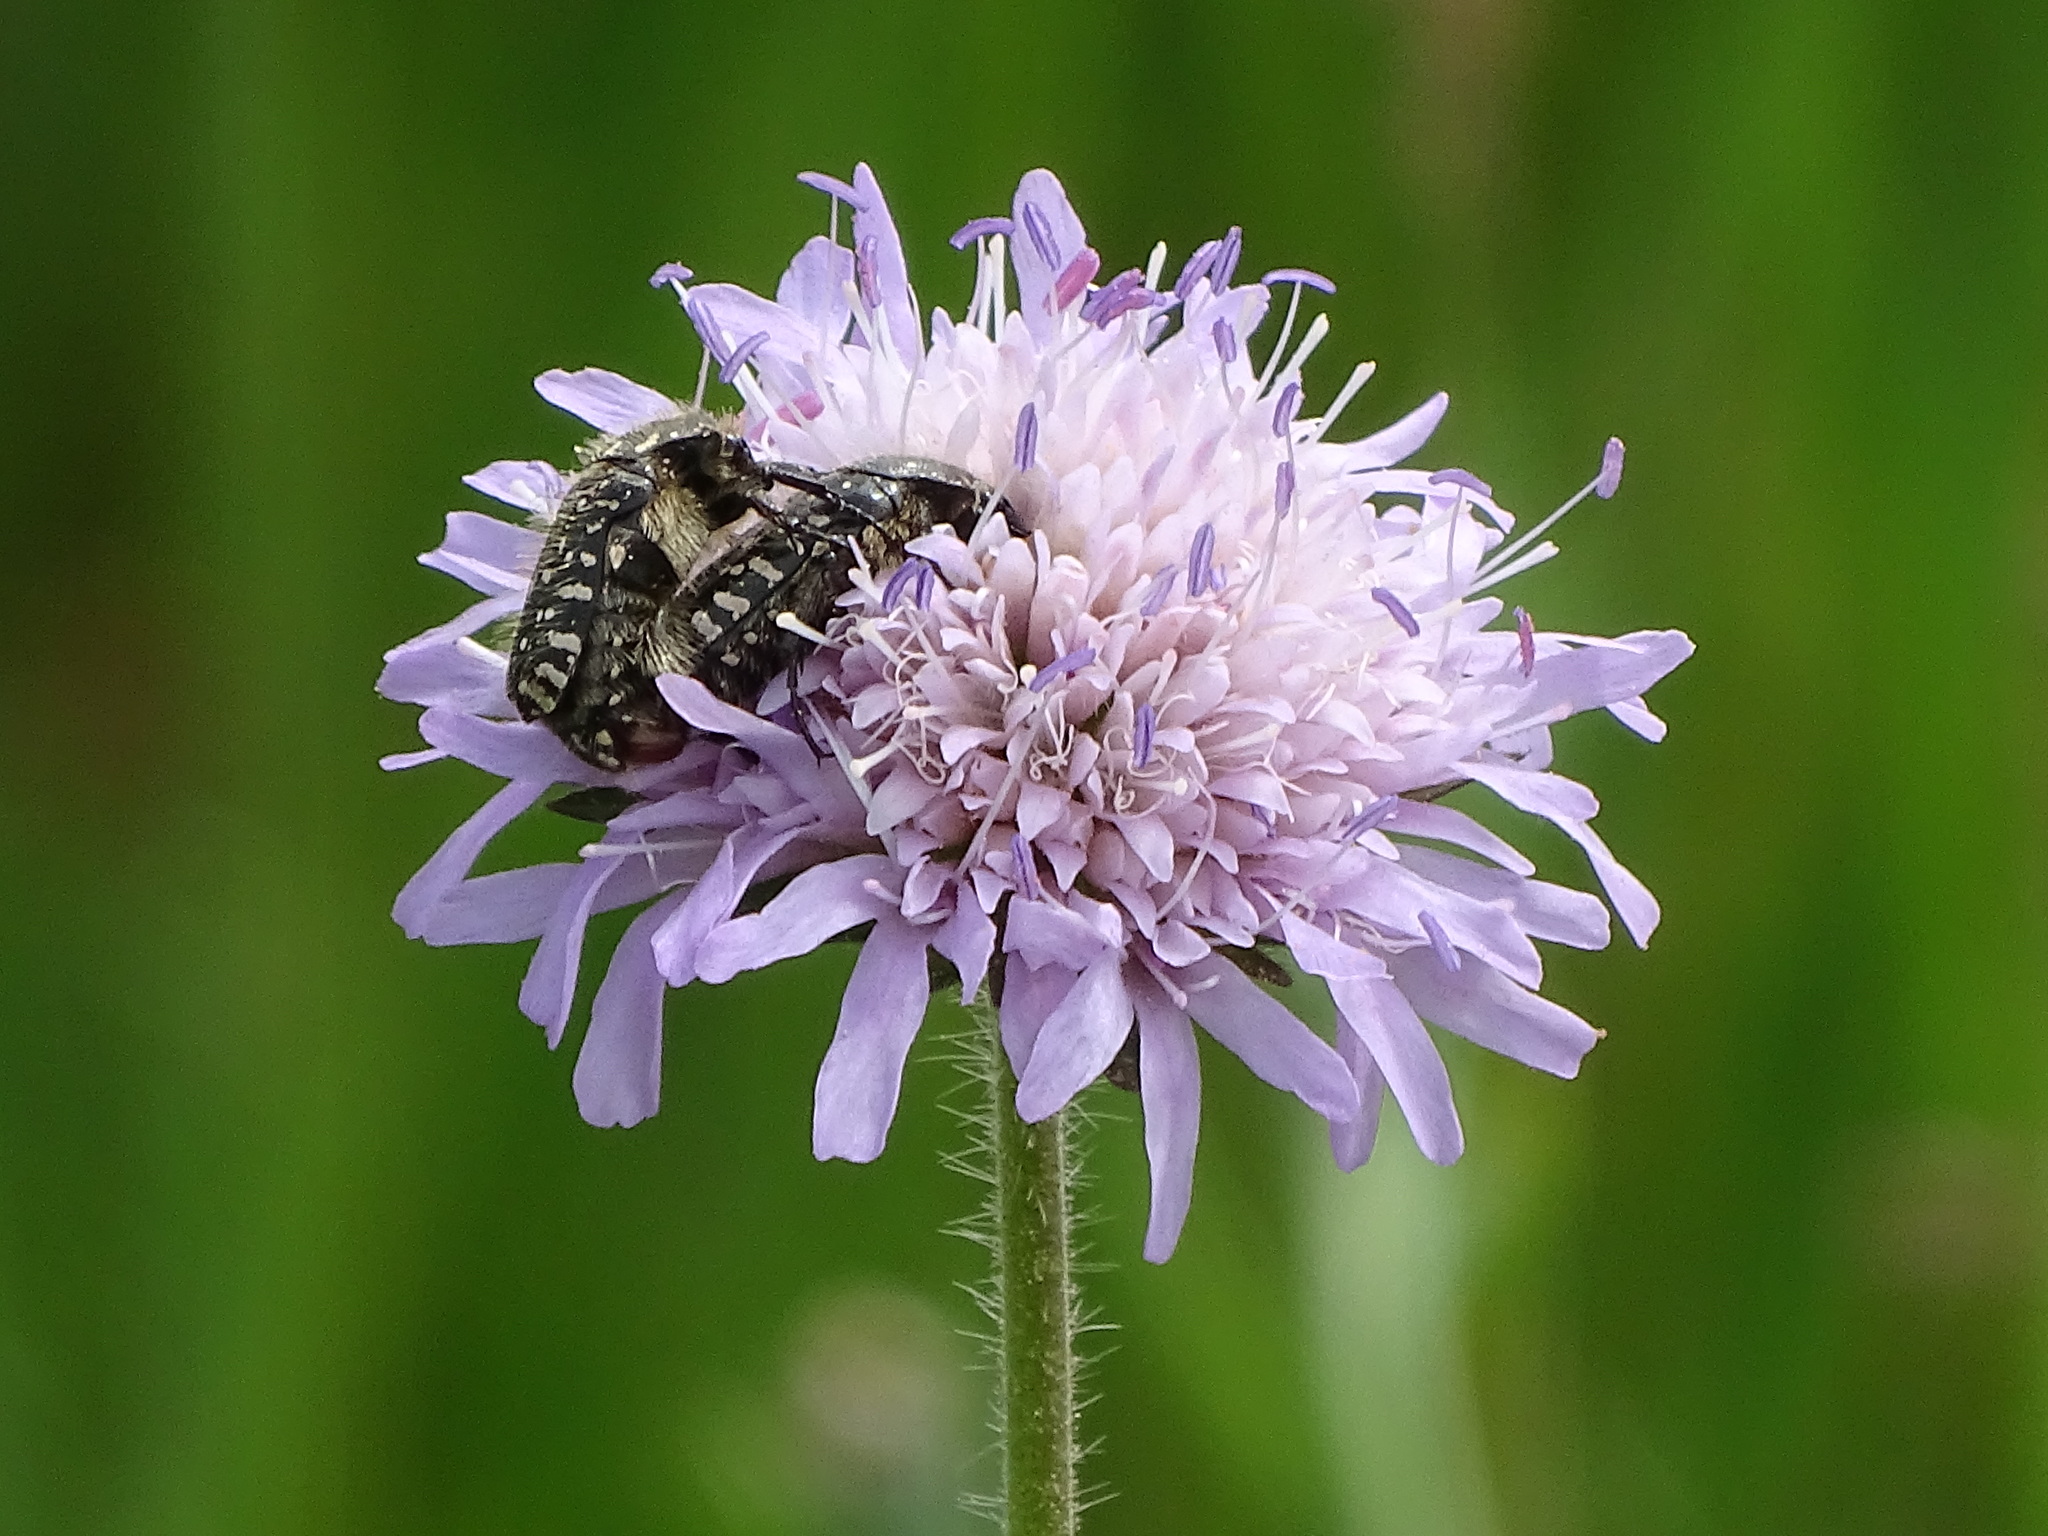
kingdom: Animalia
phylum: Arthropoda
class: Insecta
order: Coleoptera
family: Scarabaeidae
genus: Oxythyrea
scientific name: Oxythyrea funesta
